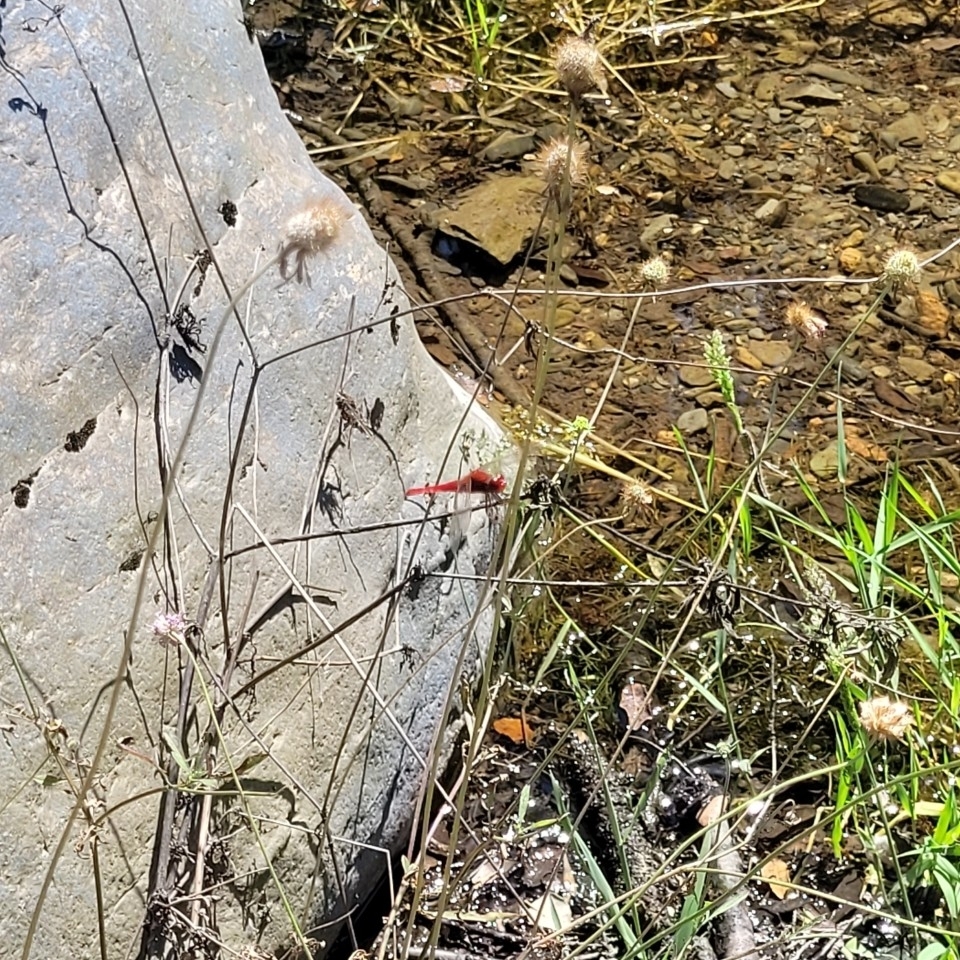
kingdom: Animalia
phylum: Arthropoda
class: Insecta
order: Odonata
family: Libellulidae
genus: Crocothemis
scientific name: Crocothemis erythraea
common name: Scarlet dragonfly
